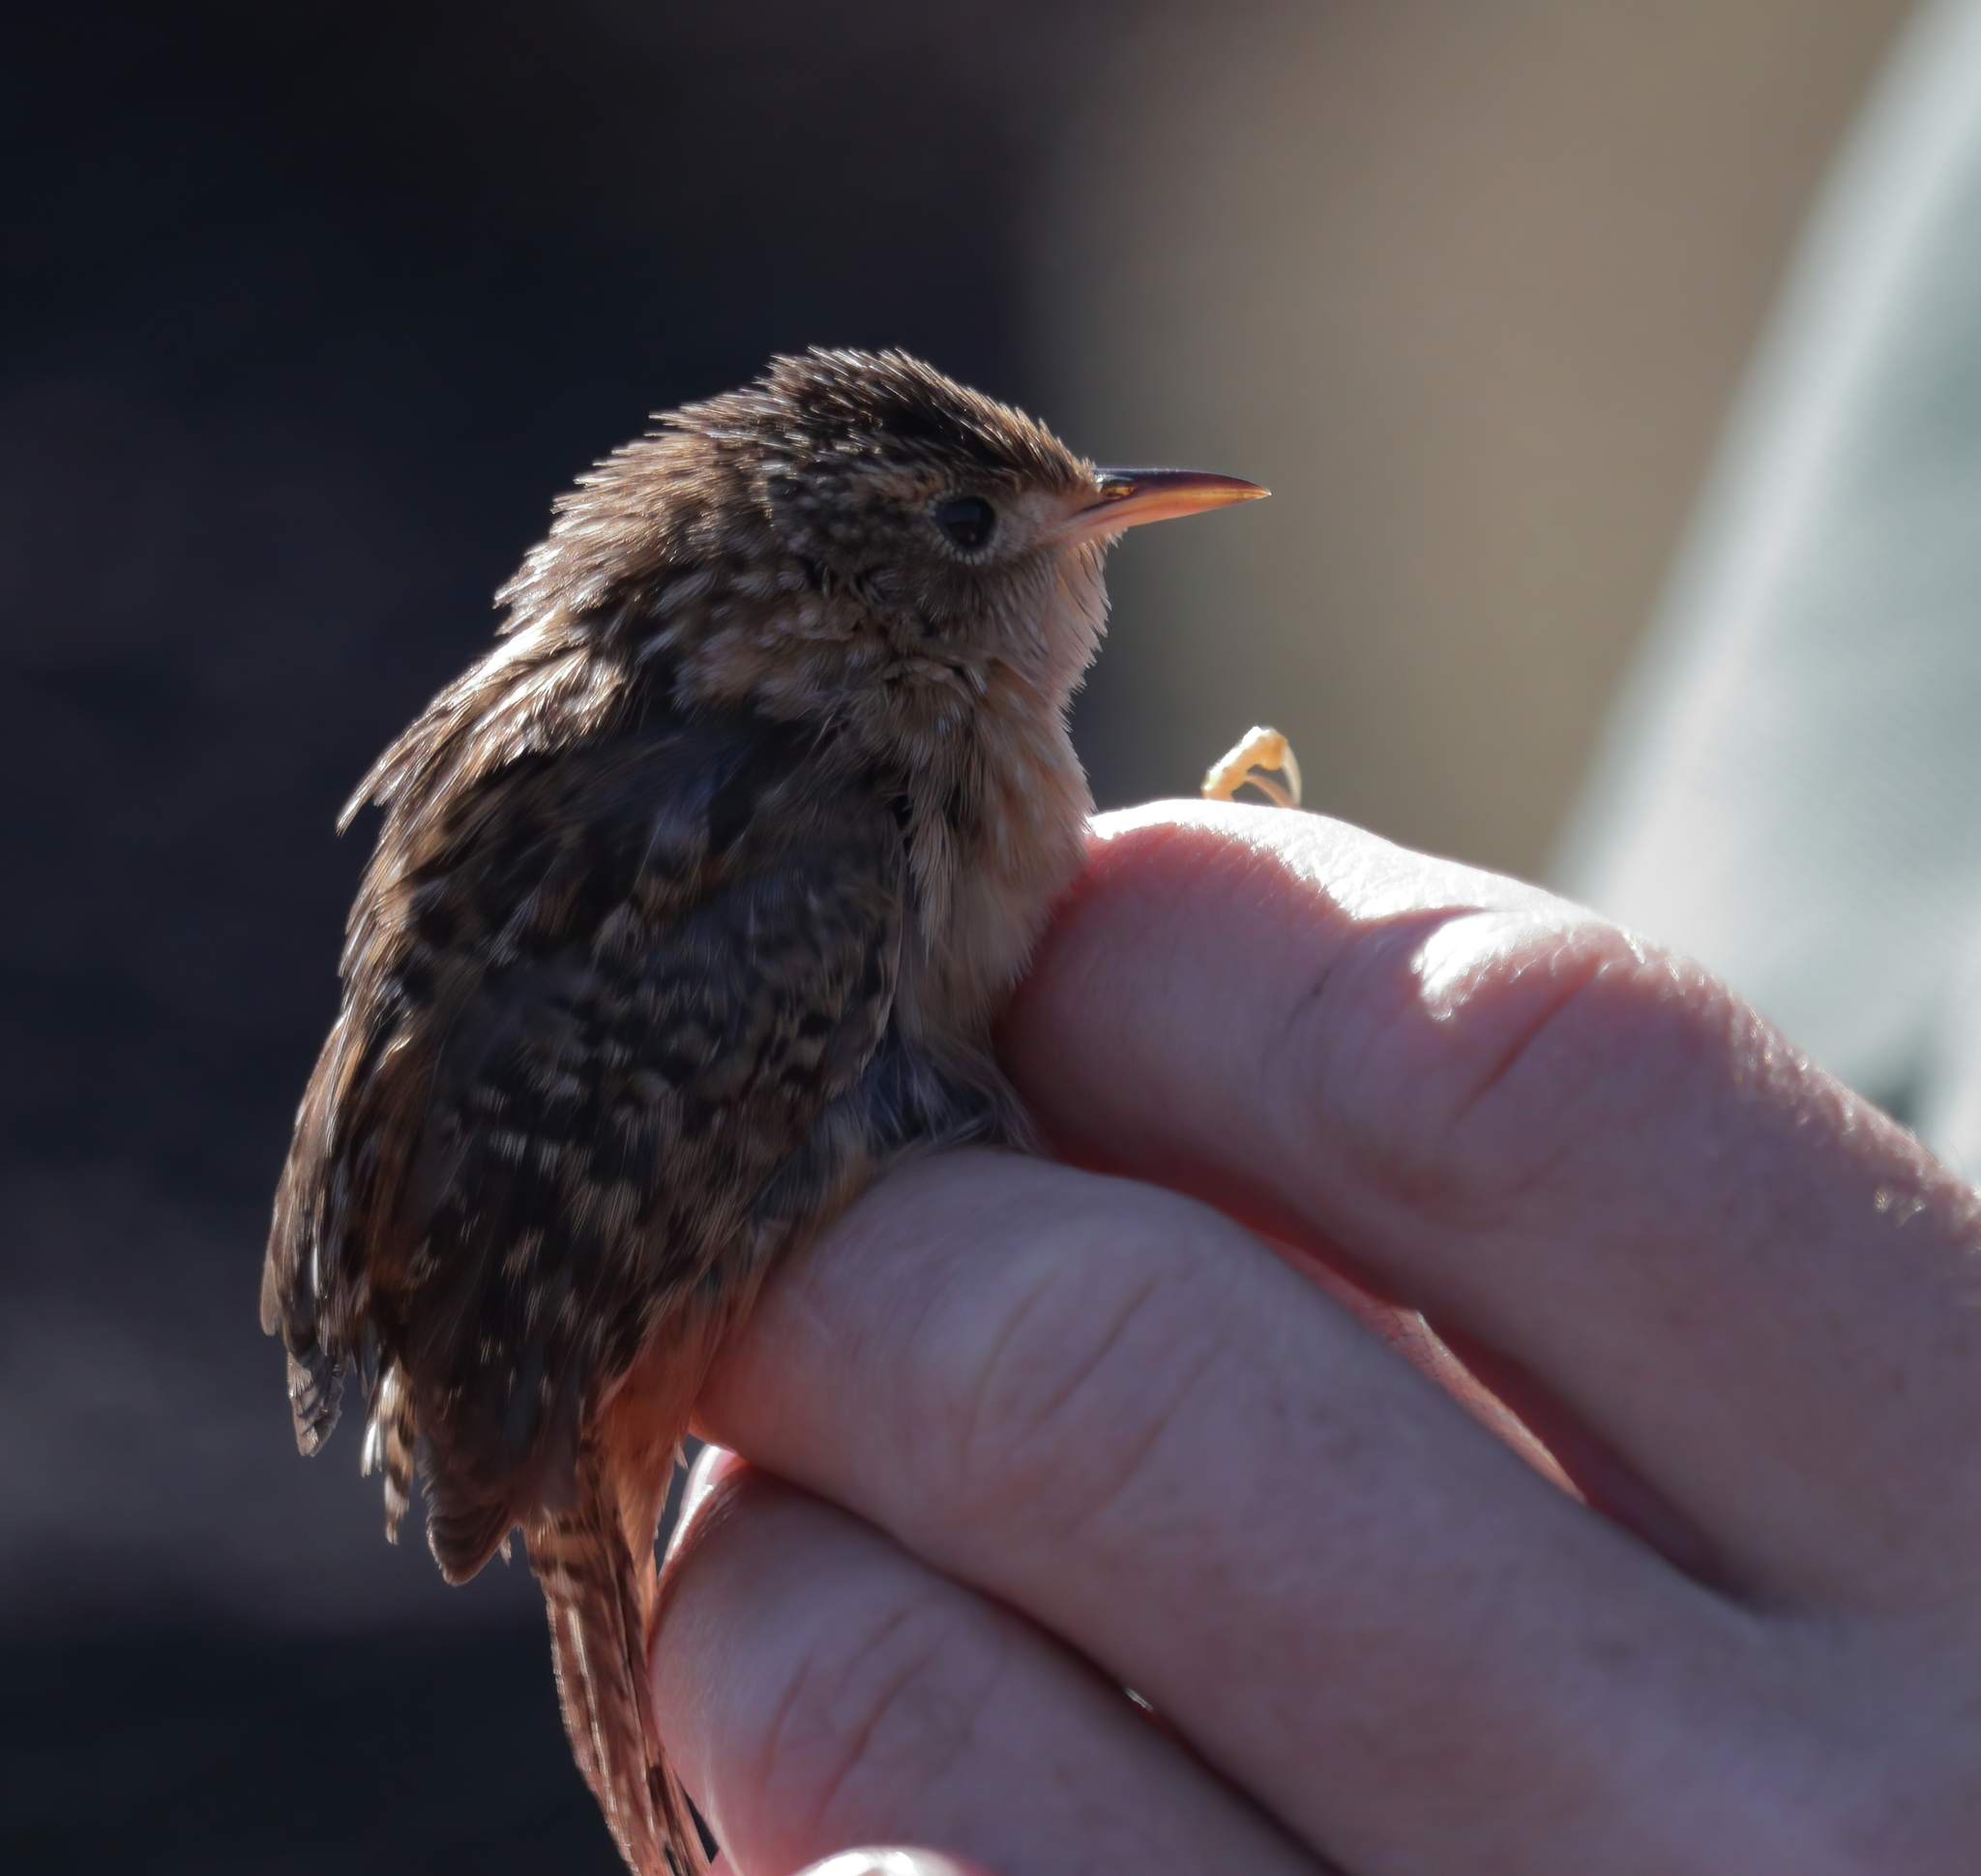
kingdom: Animalia
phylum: Chordata
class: Aves
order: Passeriformes
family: Troglodytidae
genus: Cistothorus
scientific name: Cistothorus platensis
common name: Sedge wren
